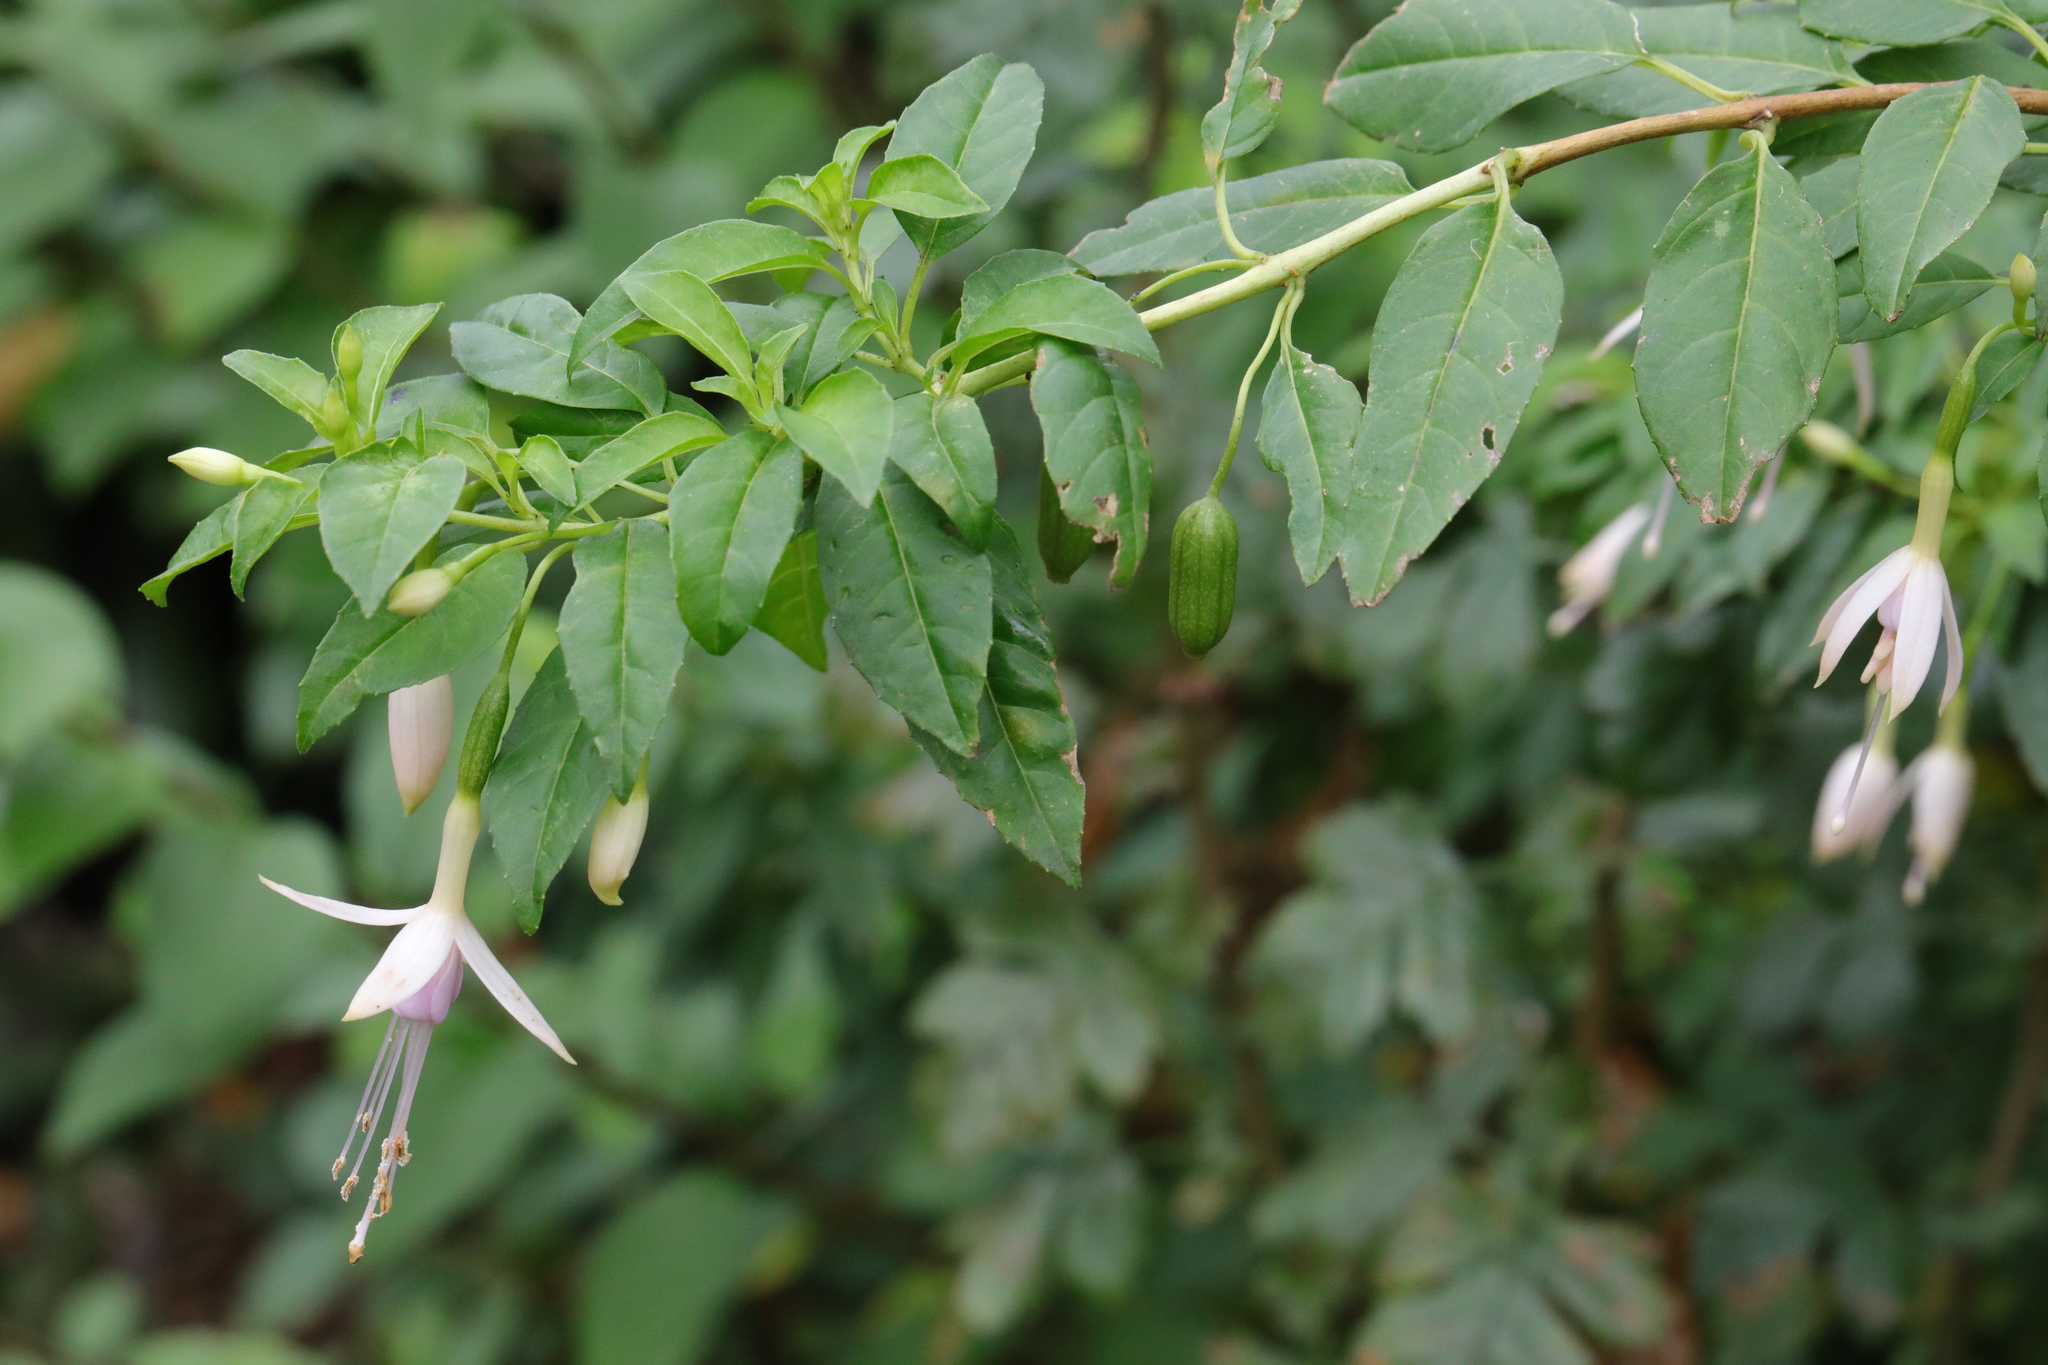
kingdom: Plantae
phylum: Tracheophyta
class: Magnoliopsida
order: Myrtales
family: Onagraceae
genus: Fuchsia
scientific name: Fuchsia magellanica
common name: Hardy fuchsia
